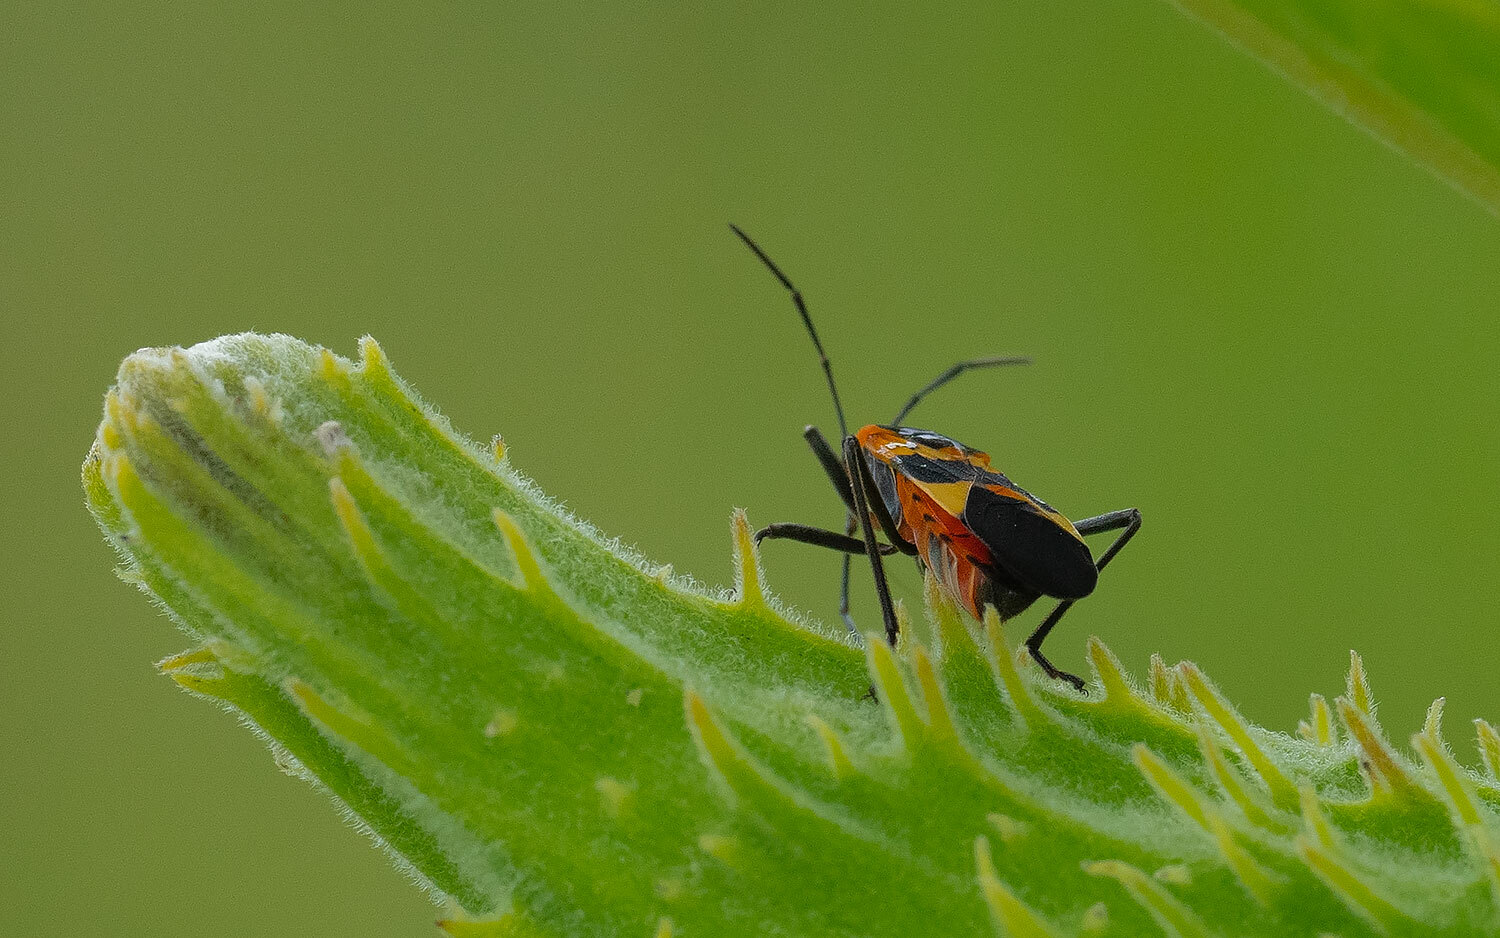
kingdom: Animalia
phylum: Arthropoda
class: Insecta
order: Hemiptera
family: Lygaeidae
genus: Oncopeltus
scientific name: Oncopeltus fasciatus
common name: Large milkweed bug
